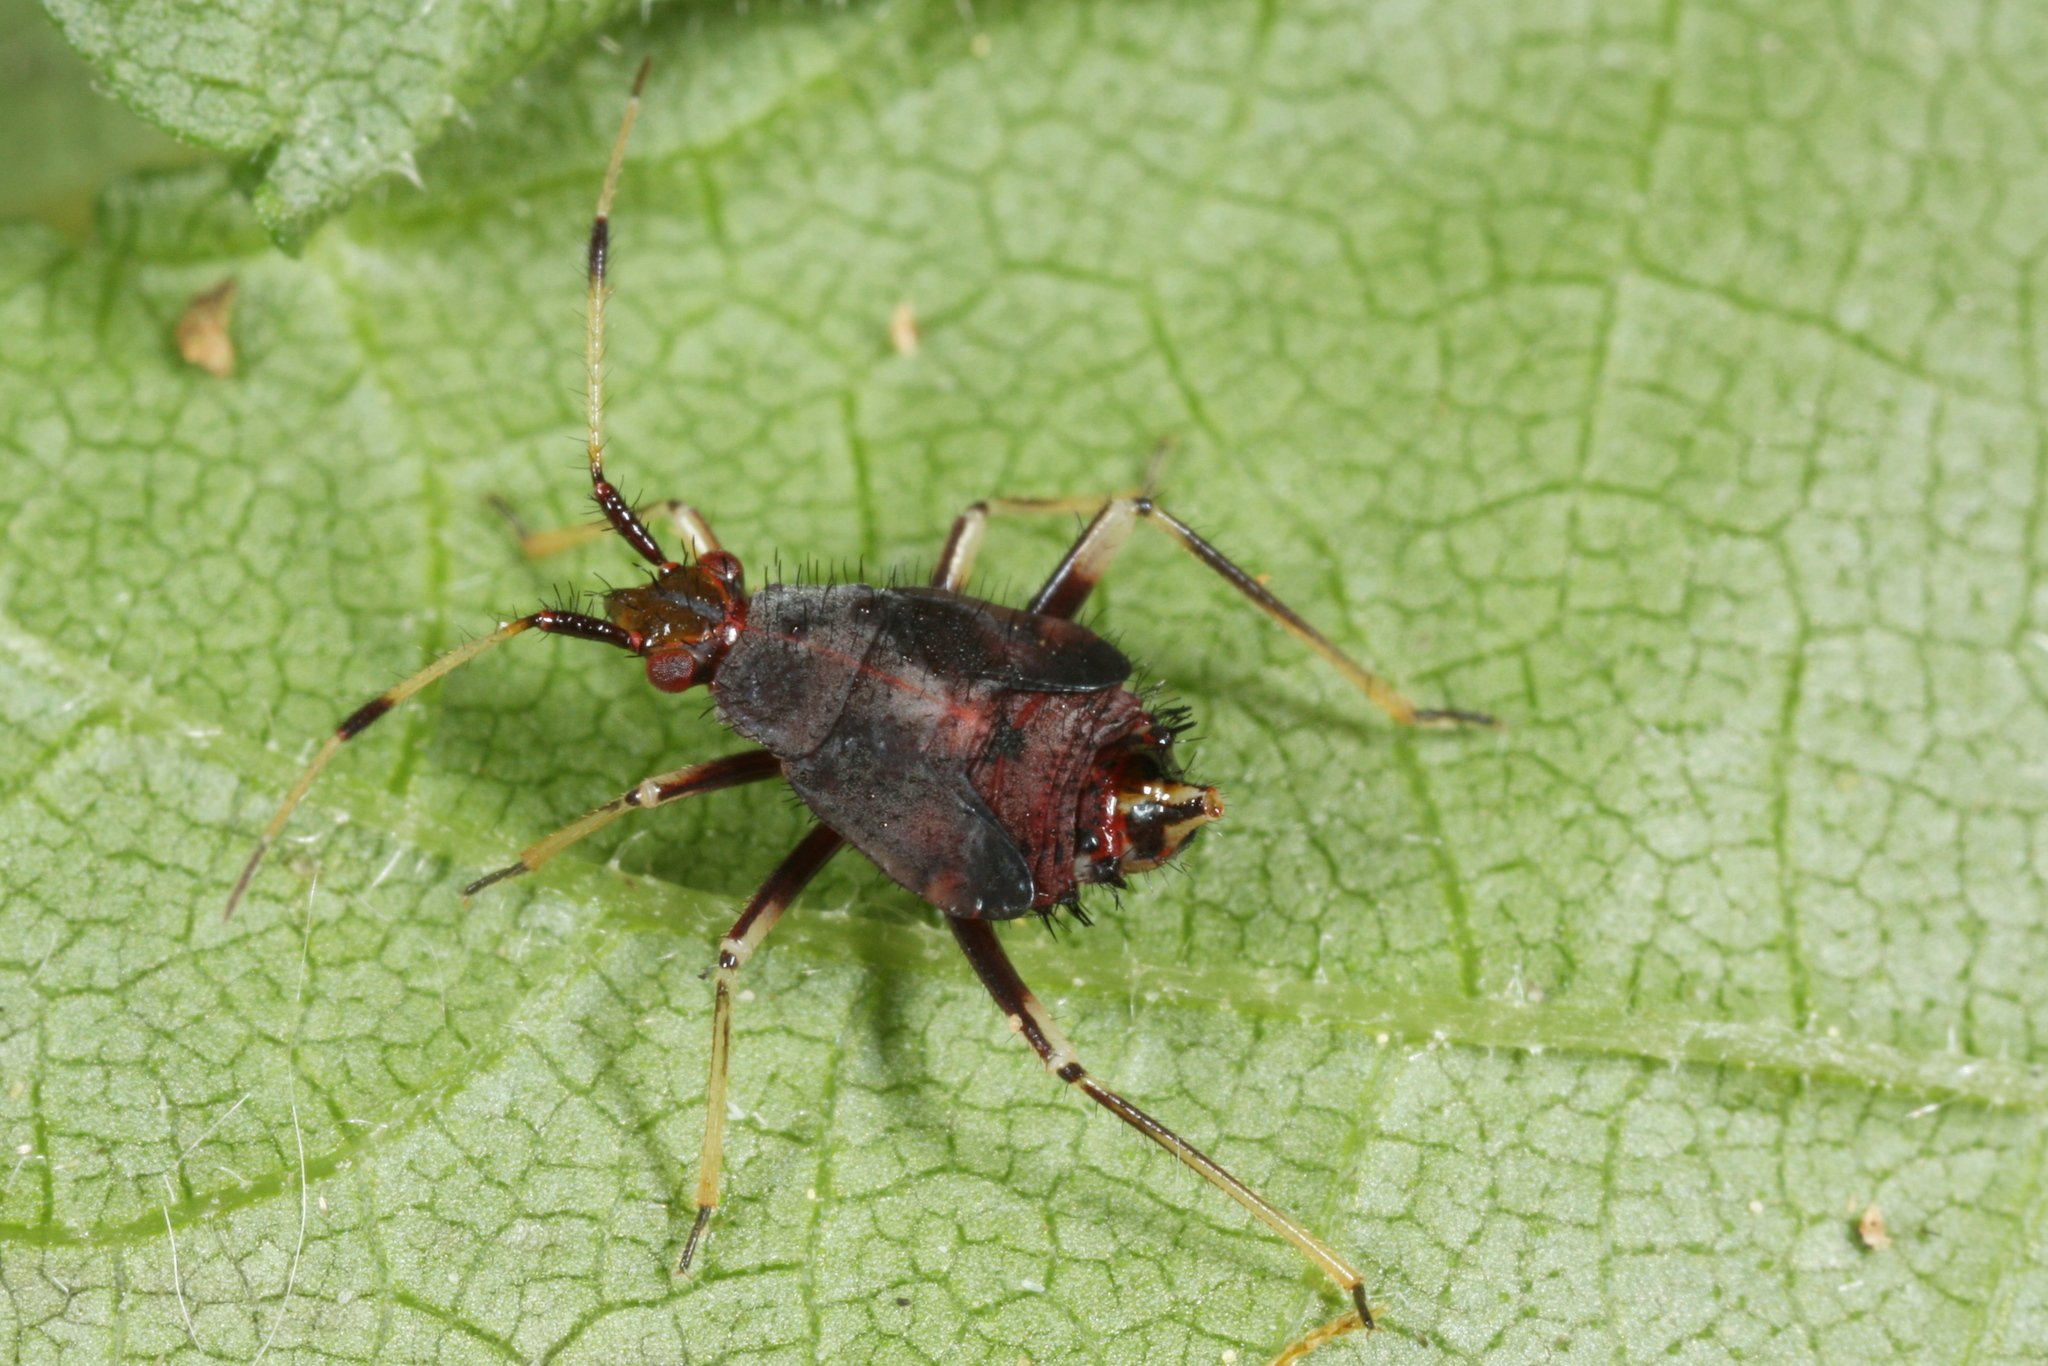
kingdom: Animalia
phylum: Arthropoda
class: Insecta
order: Hemiptera
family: Miridae
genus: Deraeocoris
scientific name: Deraeocoris ruber
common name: Plant bug
